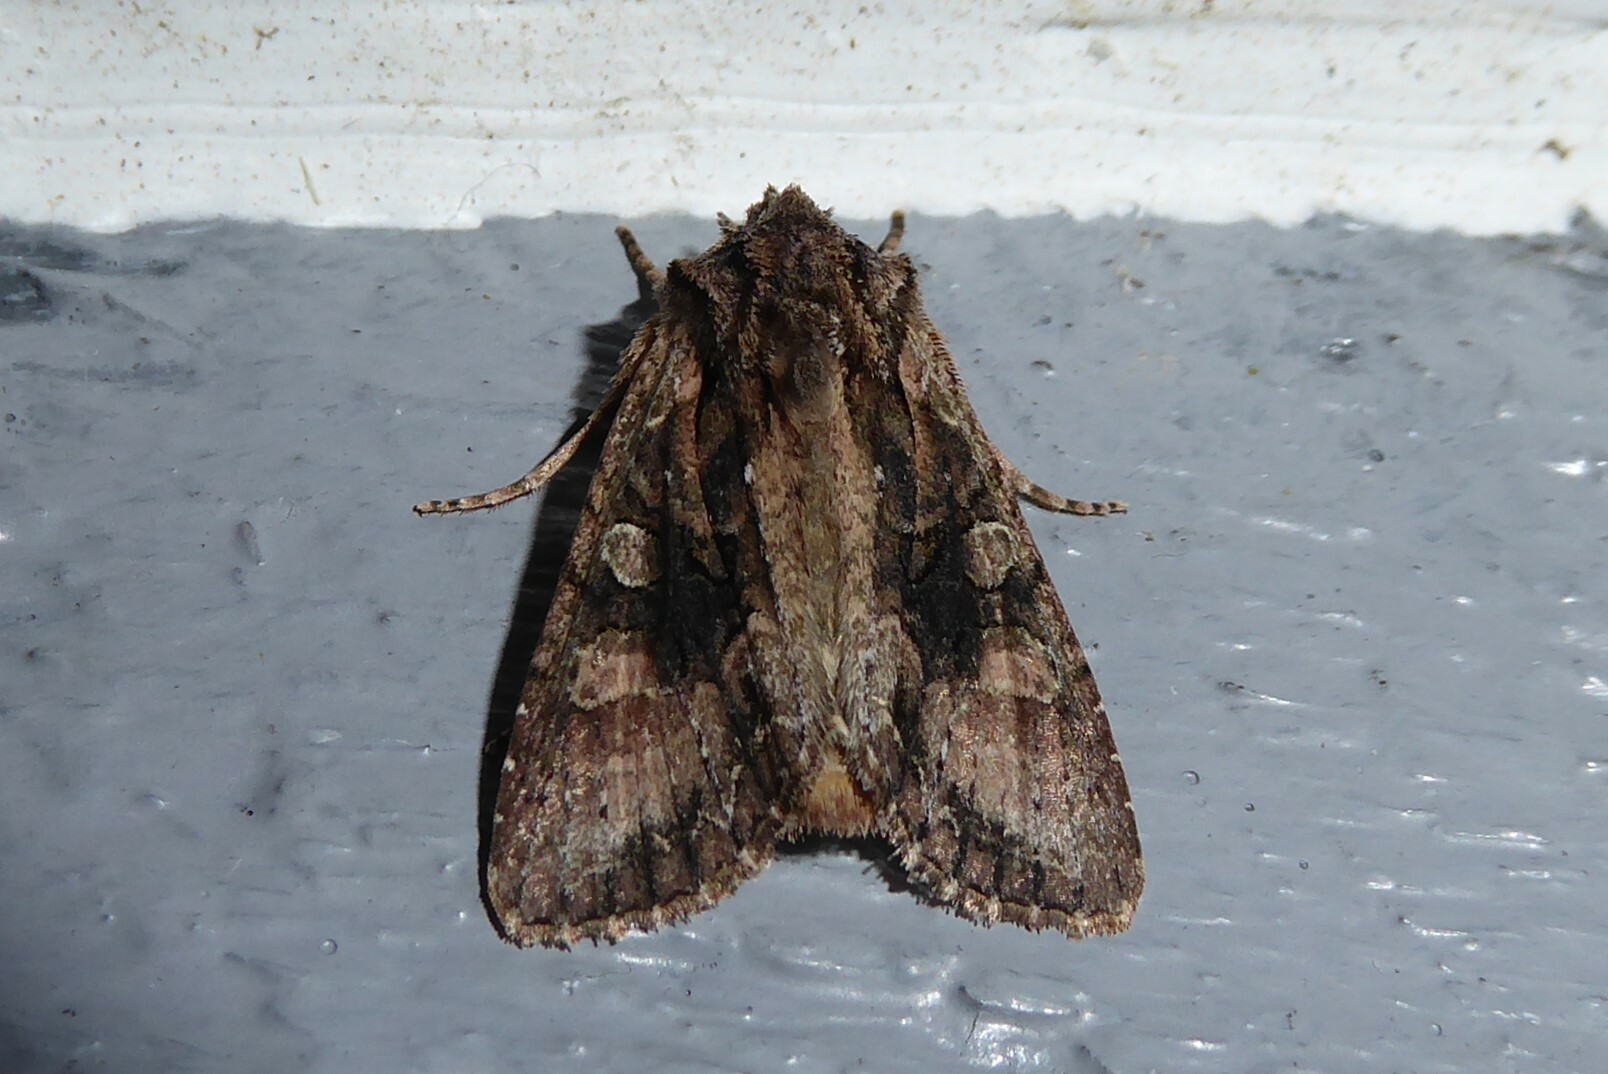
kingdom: Animalia
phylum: Arthropoda
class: Insecta
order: Lepidoptera
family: Noctuidae
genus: Ichneutica
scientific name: Ichneutica mutans
